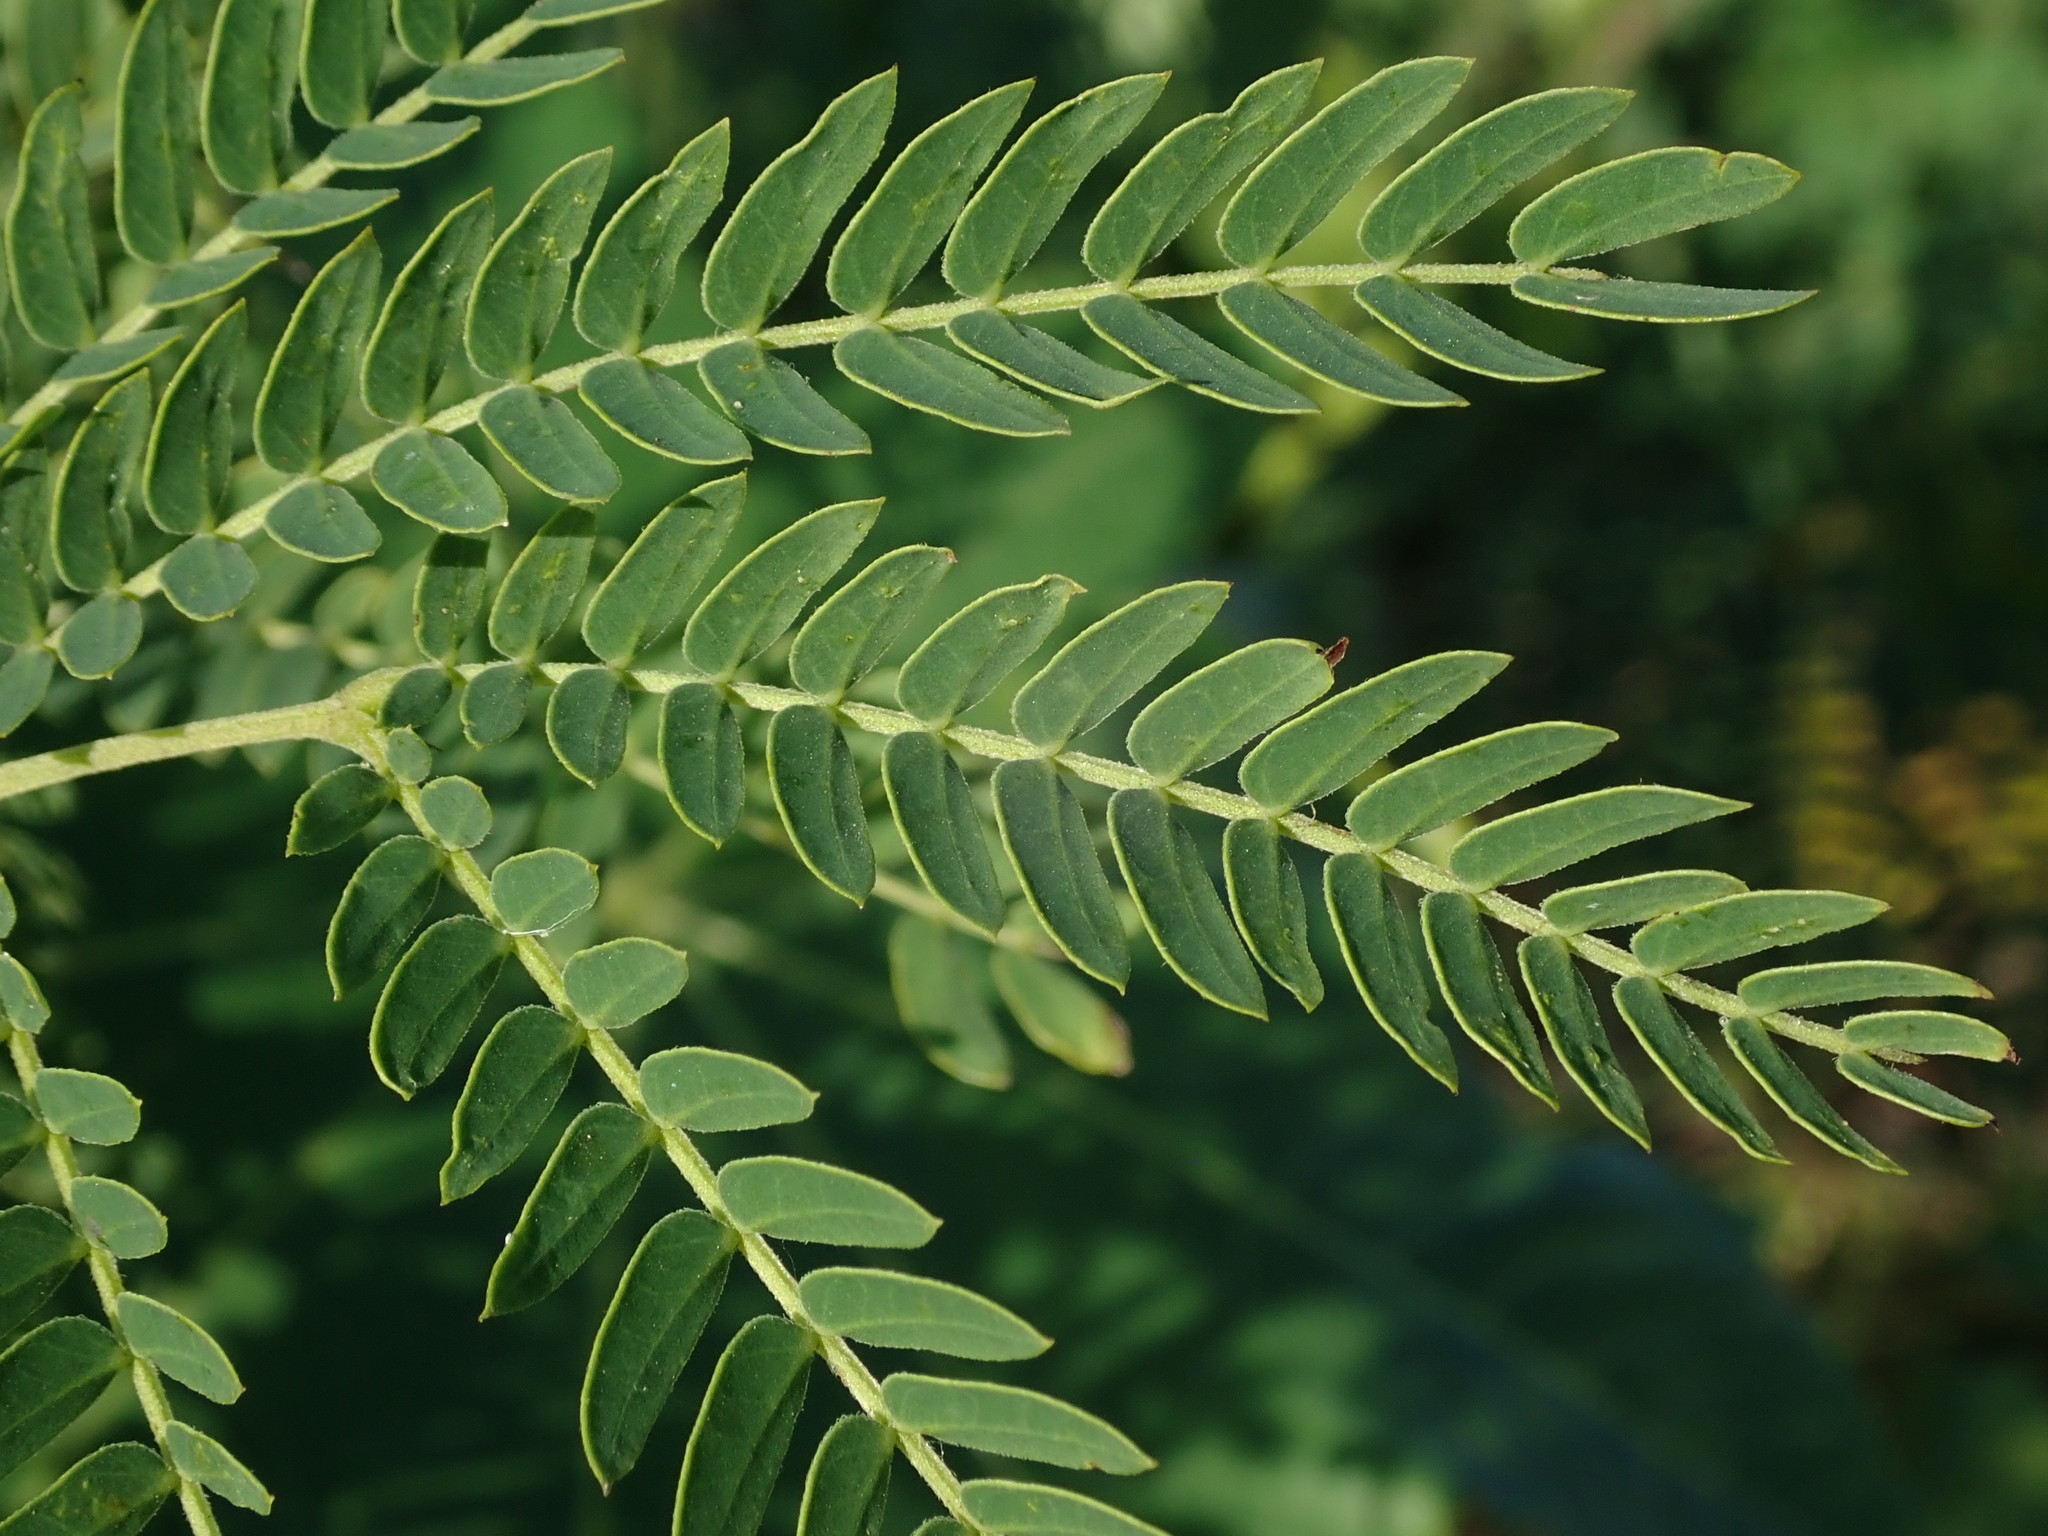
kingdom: Plantae
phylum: Tracheophyta
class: Magnoliopsida
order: Fabales
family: Fabaceae
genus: Leucaena
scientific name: Leucaena leucocephala
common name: White leadtree
